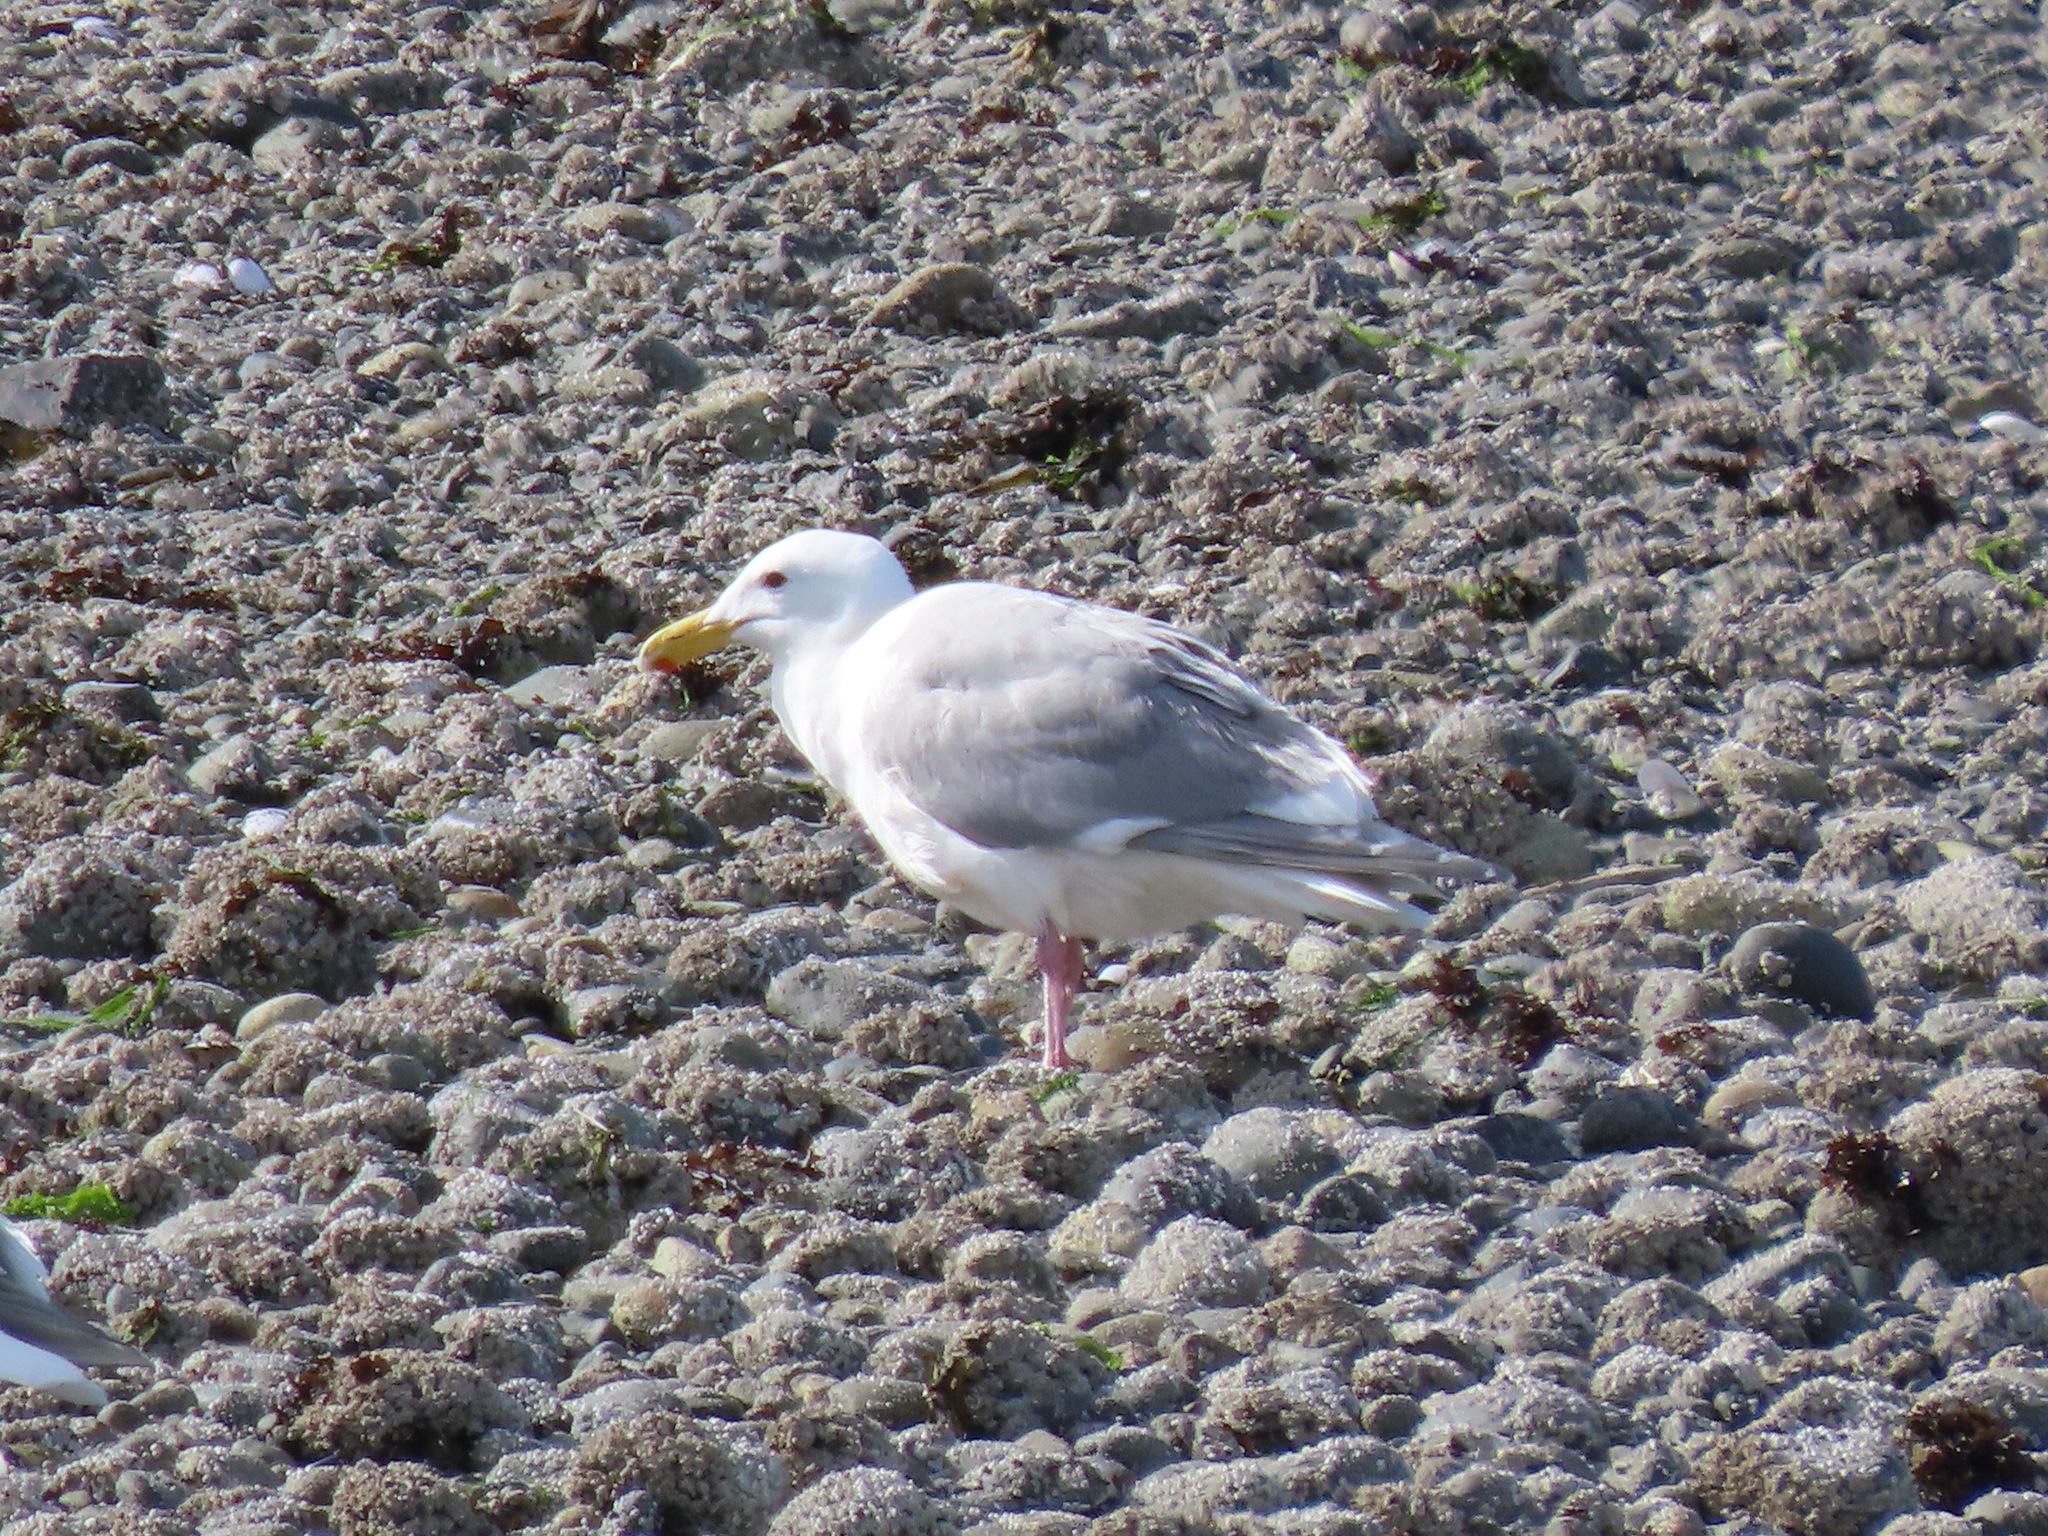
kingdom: Animalia
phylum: Chordata
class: Aves
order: Charadriiformes
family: Laridae
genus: Larus
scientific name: Larus glaucescens
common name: Glaucous-winged gull
